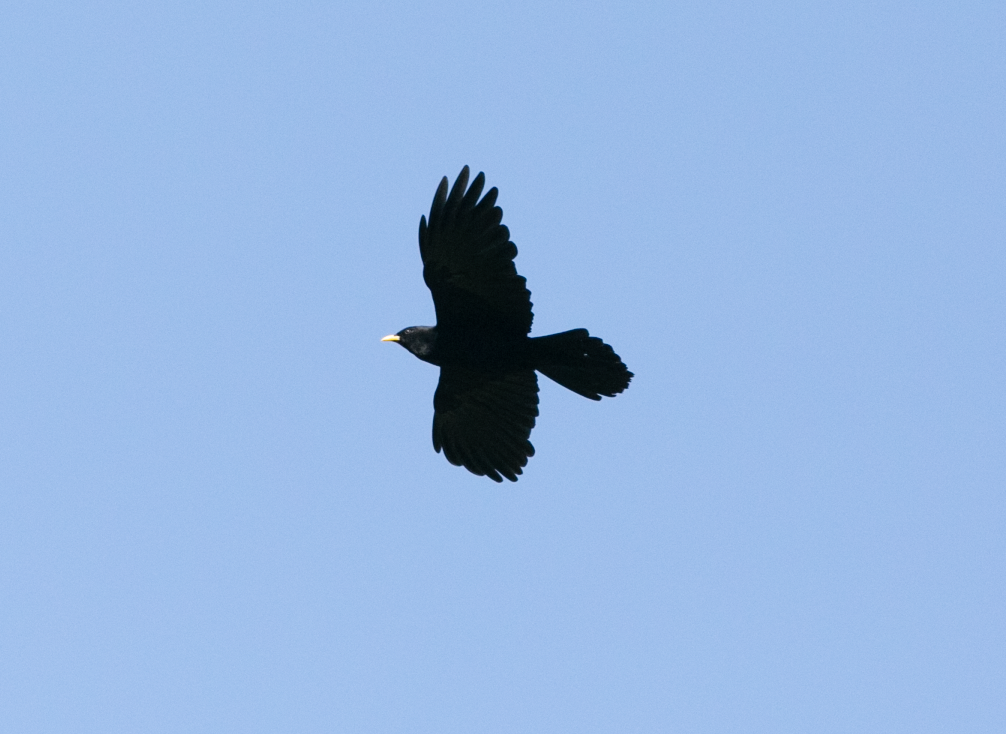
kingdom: Animalia
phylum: Chordata
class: Aves
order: Passeriformes
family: Corvidae
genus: Pyrrhocorax
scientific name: Pyrrhocorax graculus
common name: Alpine chough
